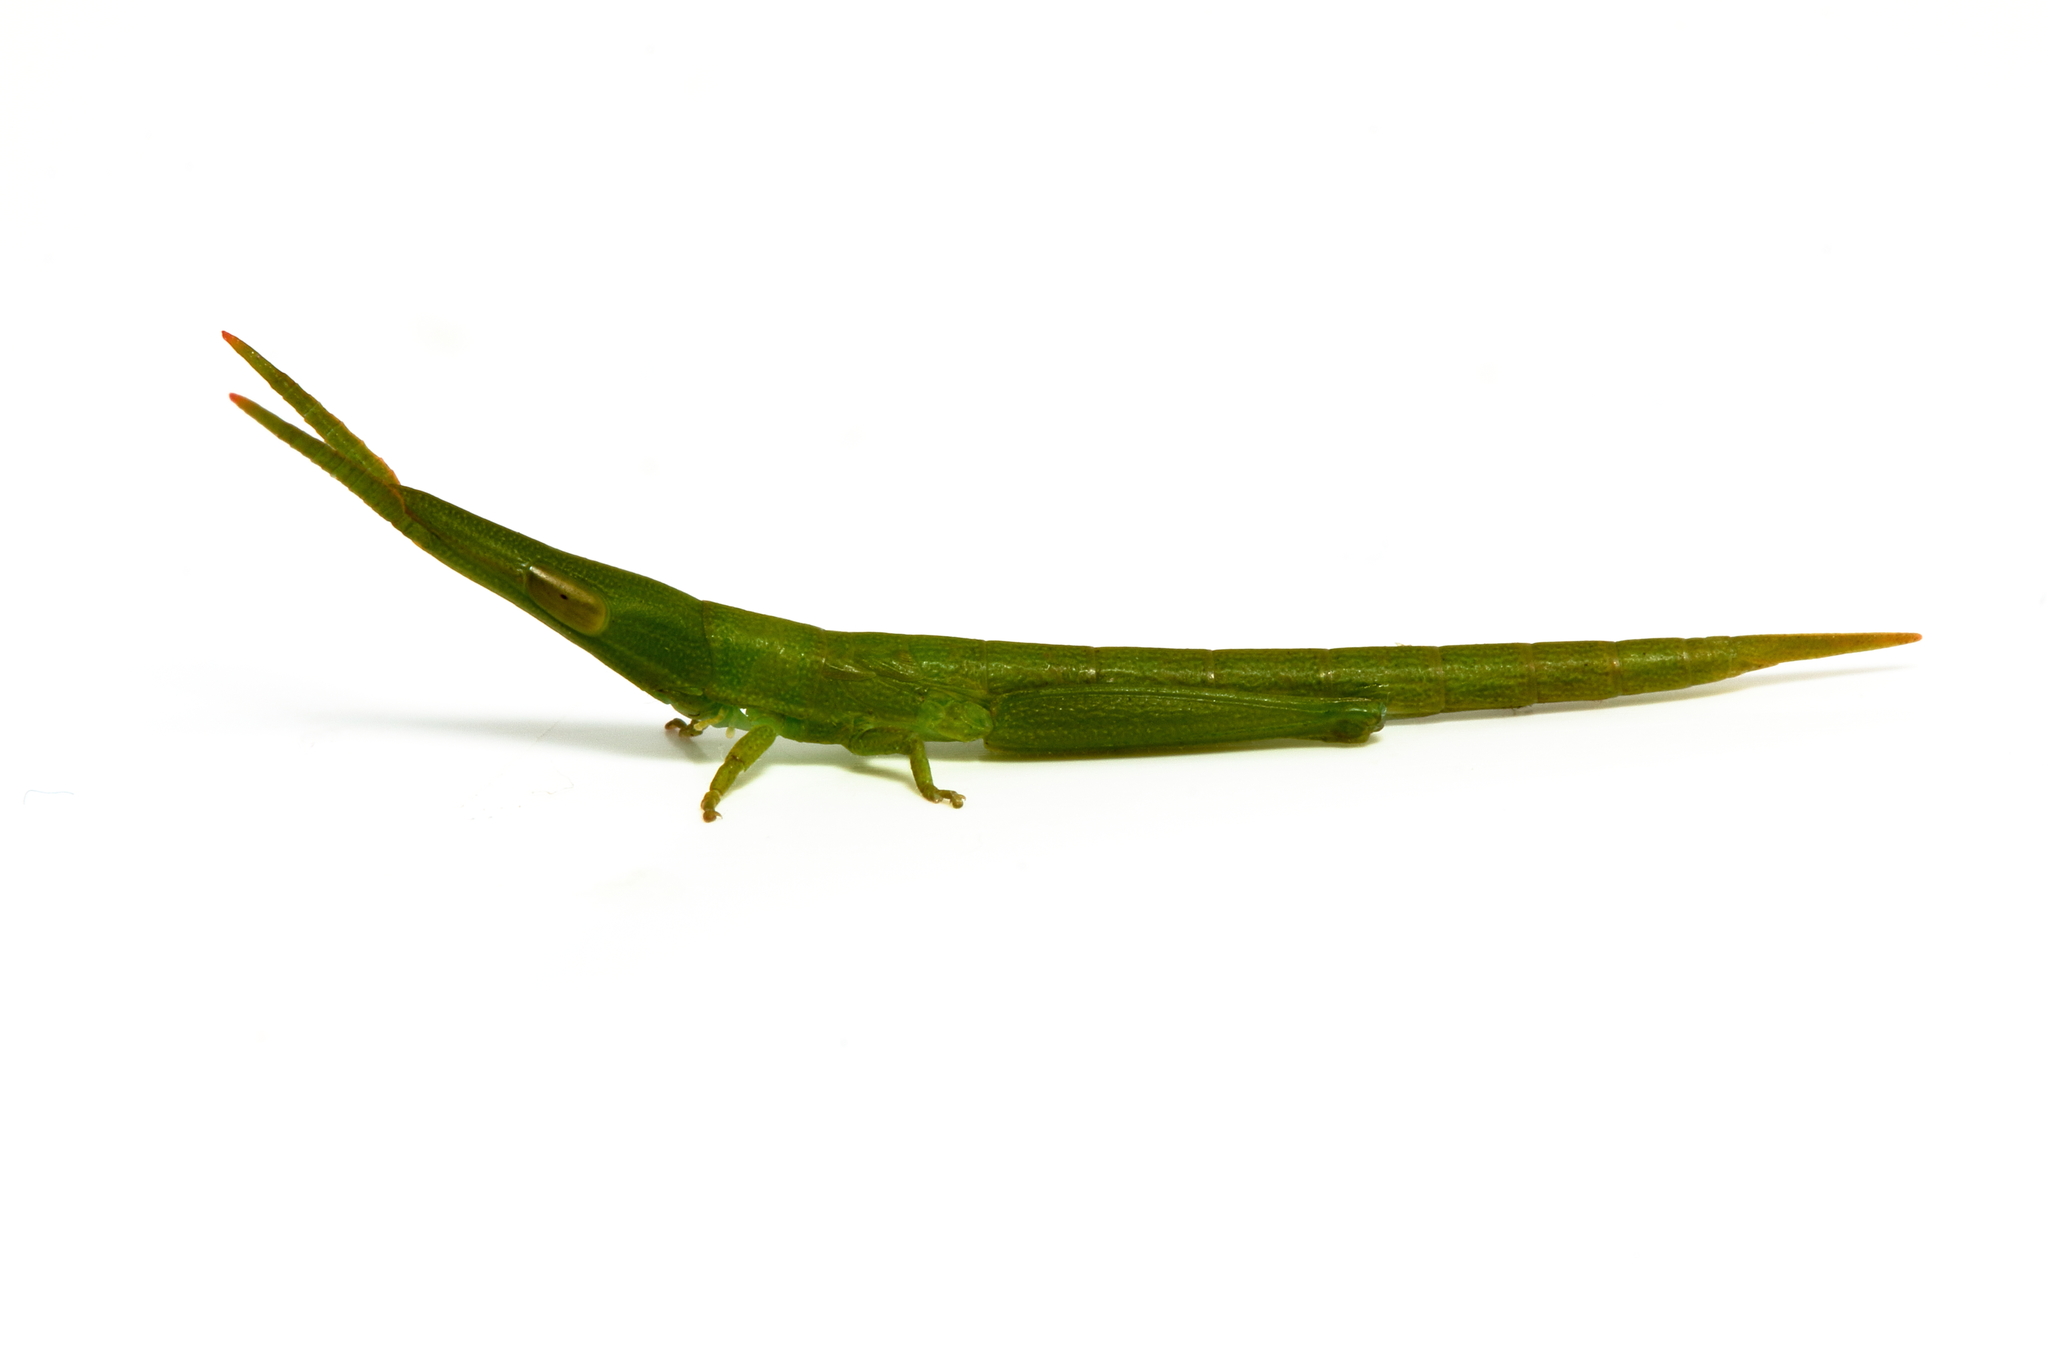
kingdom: Animalia
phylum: Arthropoda
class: Insecta
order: Orthoptera
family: Pyrgomorphidae
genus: Psednura
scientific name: Psednura pedestris
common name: Common psednura
